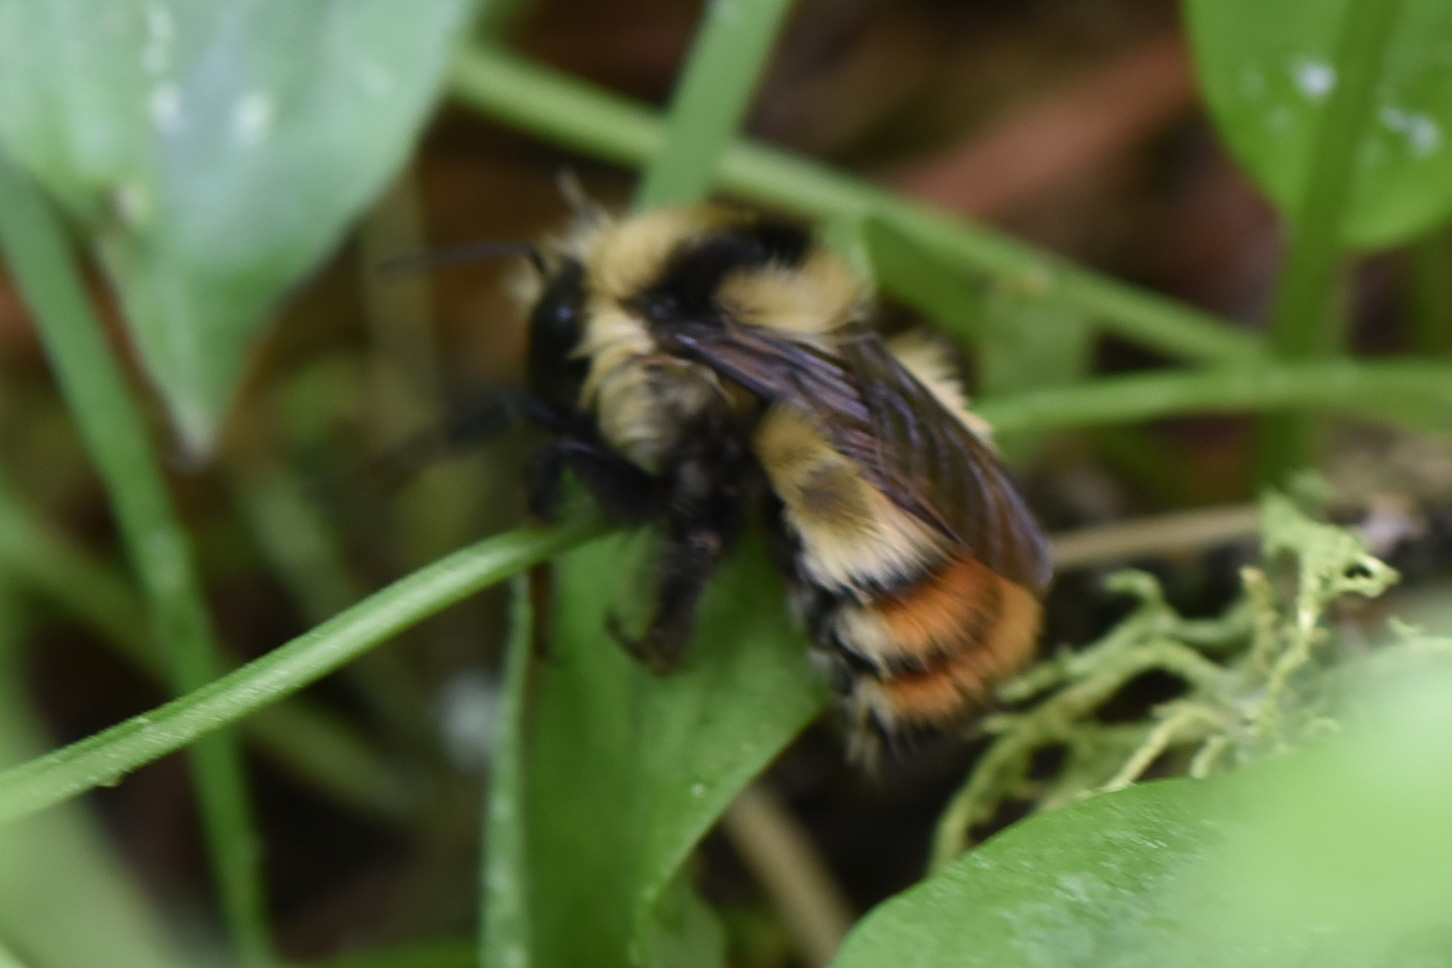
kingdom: Animalia
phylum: Arthropoda
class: Insecta
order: Hymenoptera
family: Apidae
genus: Bombus
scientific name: Bombus centralis
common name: Central bumble bee
